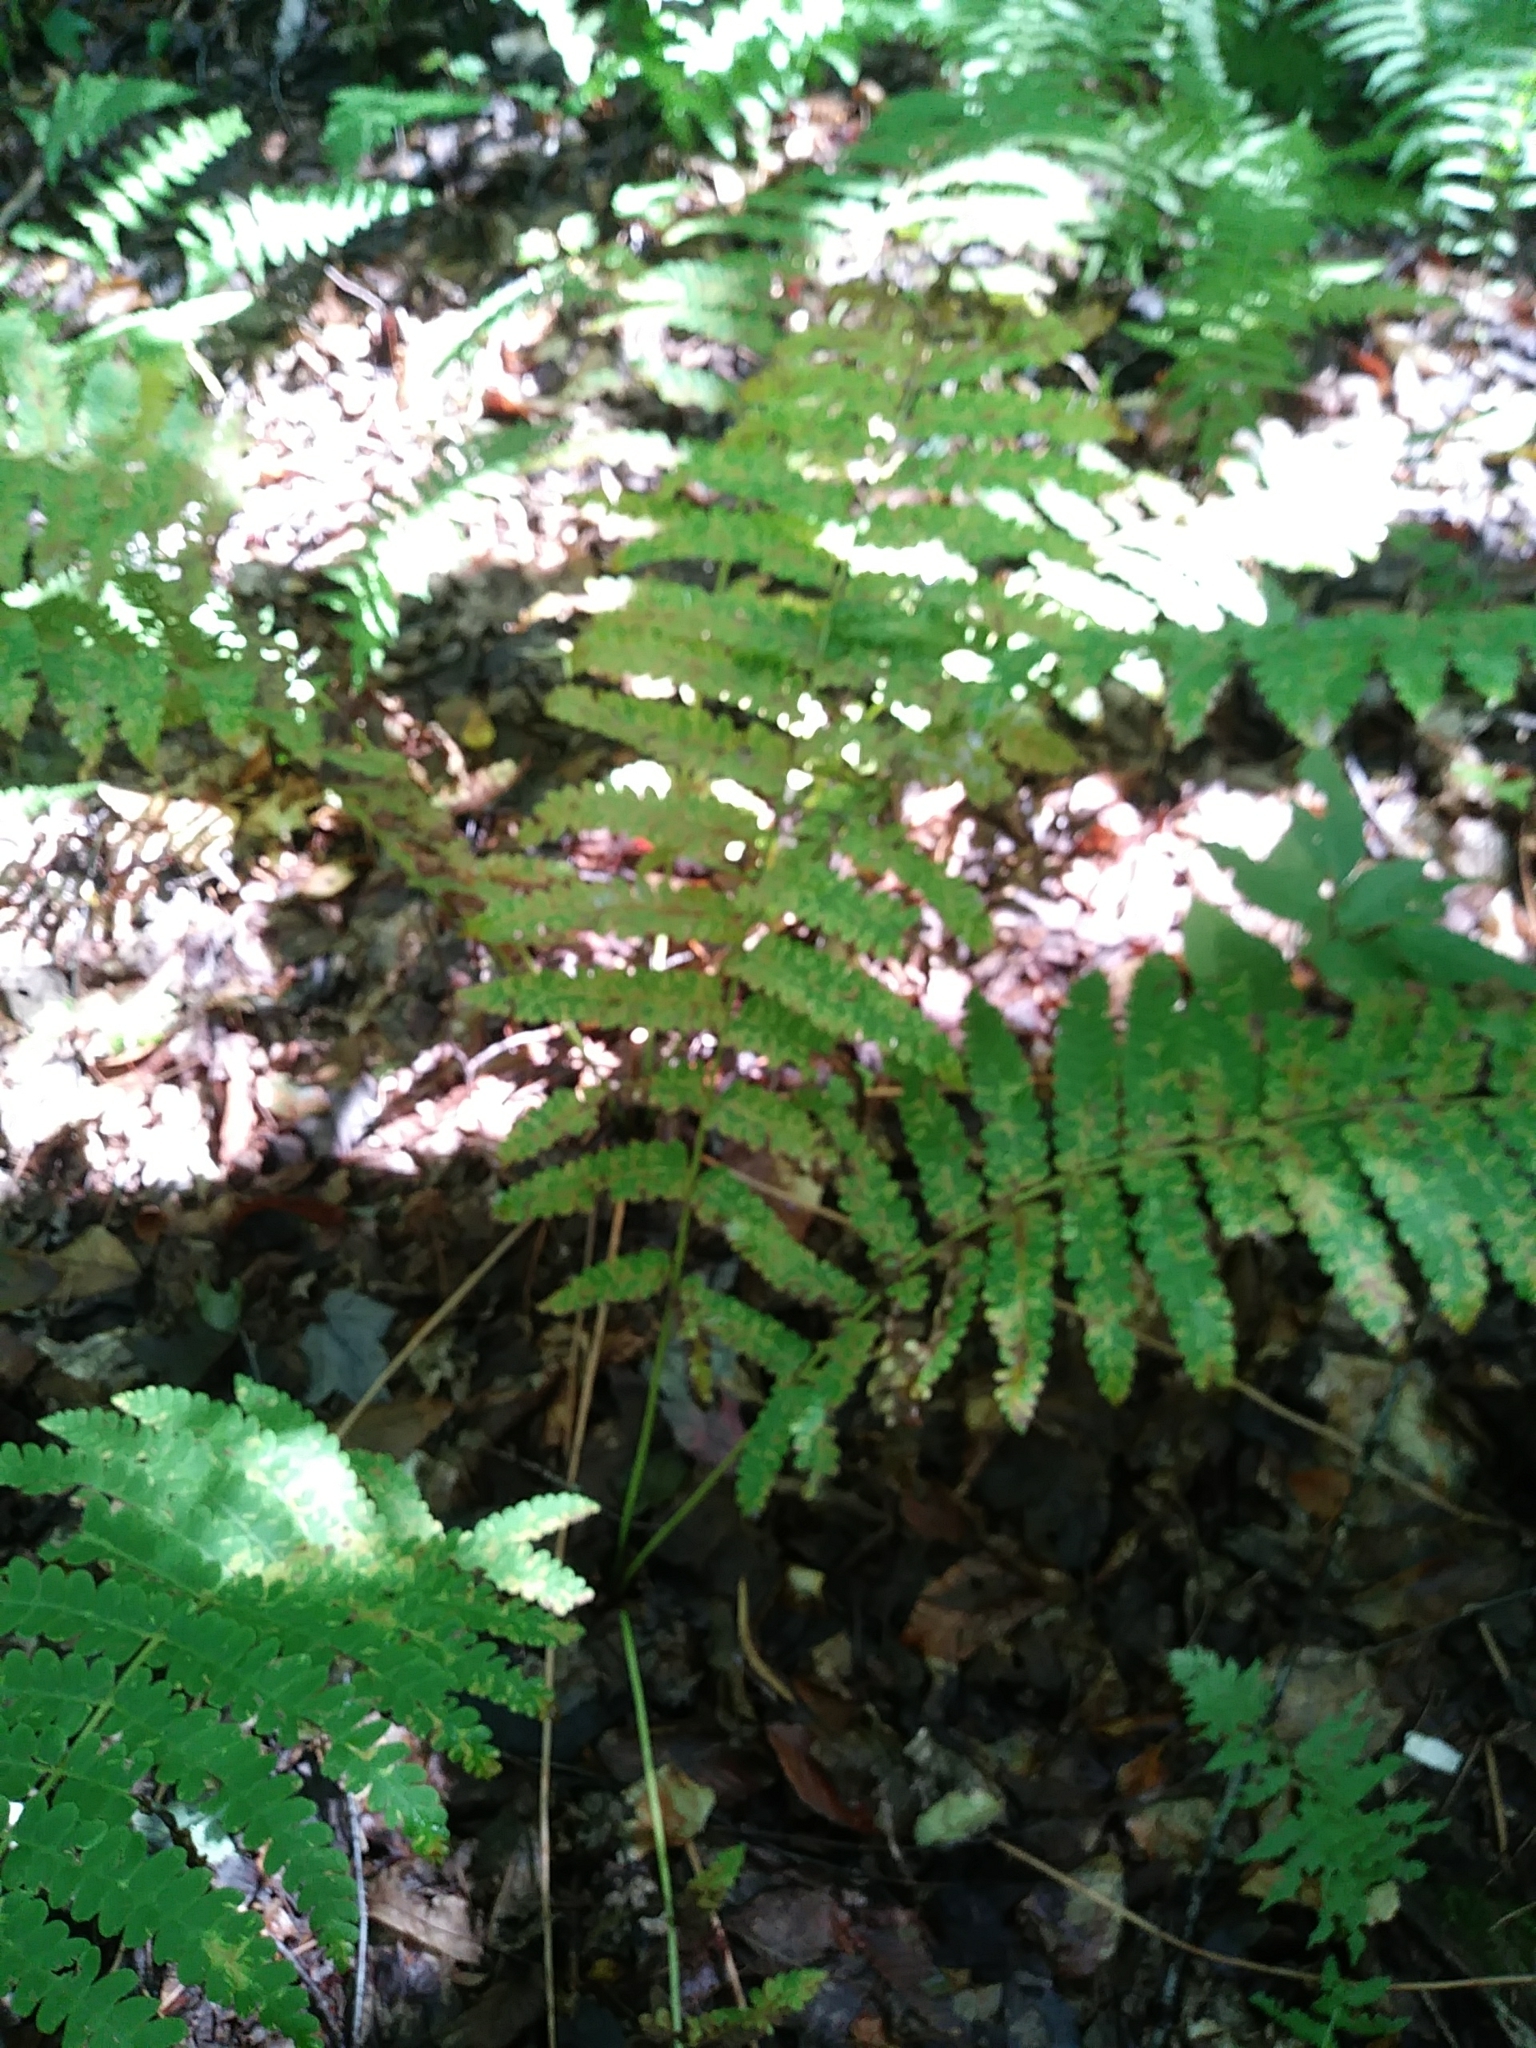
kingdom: Plantae
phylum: Tracheophyta
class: Polypodiopsida
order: Osmundales
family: Osmundaceae
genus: Claytosmunda
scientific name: Claytosmunda claytoniana
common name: Clayton's fern
